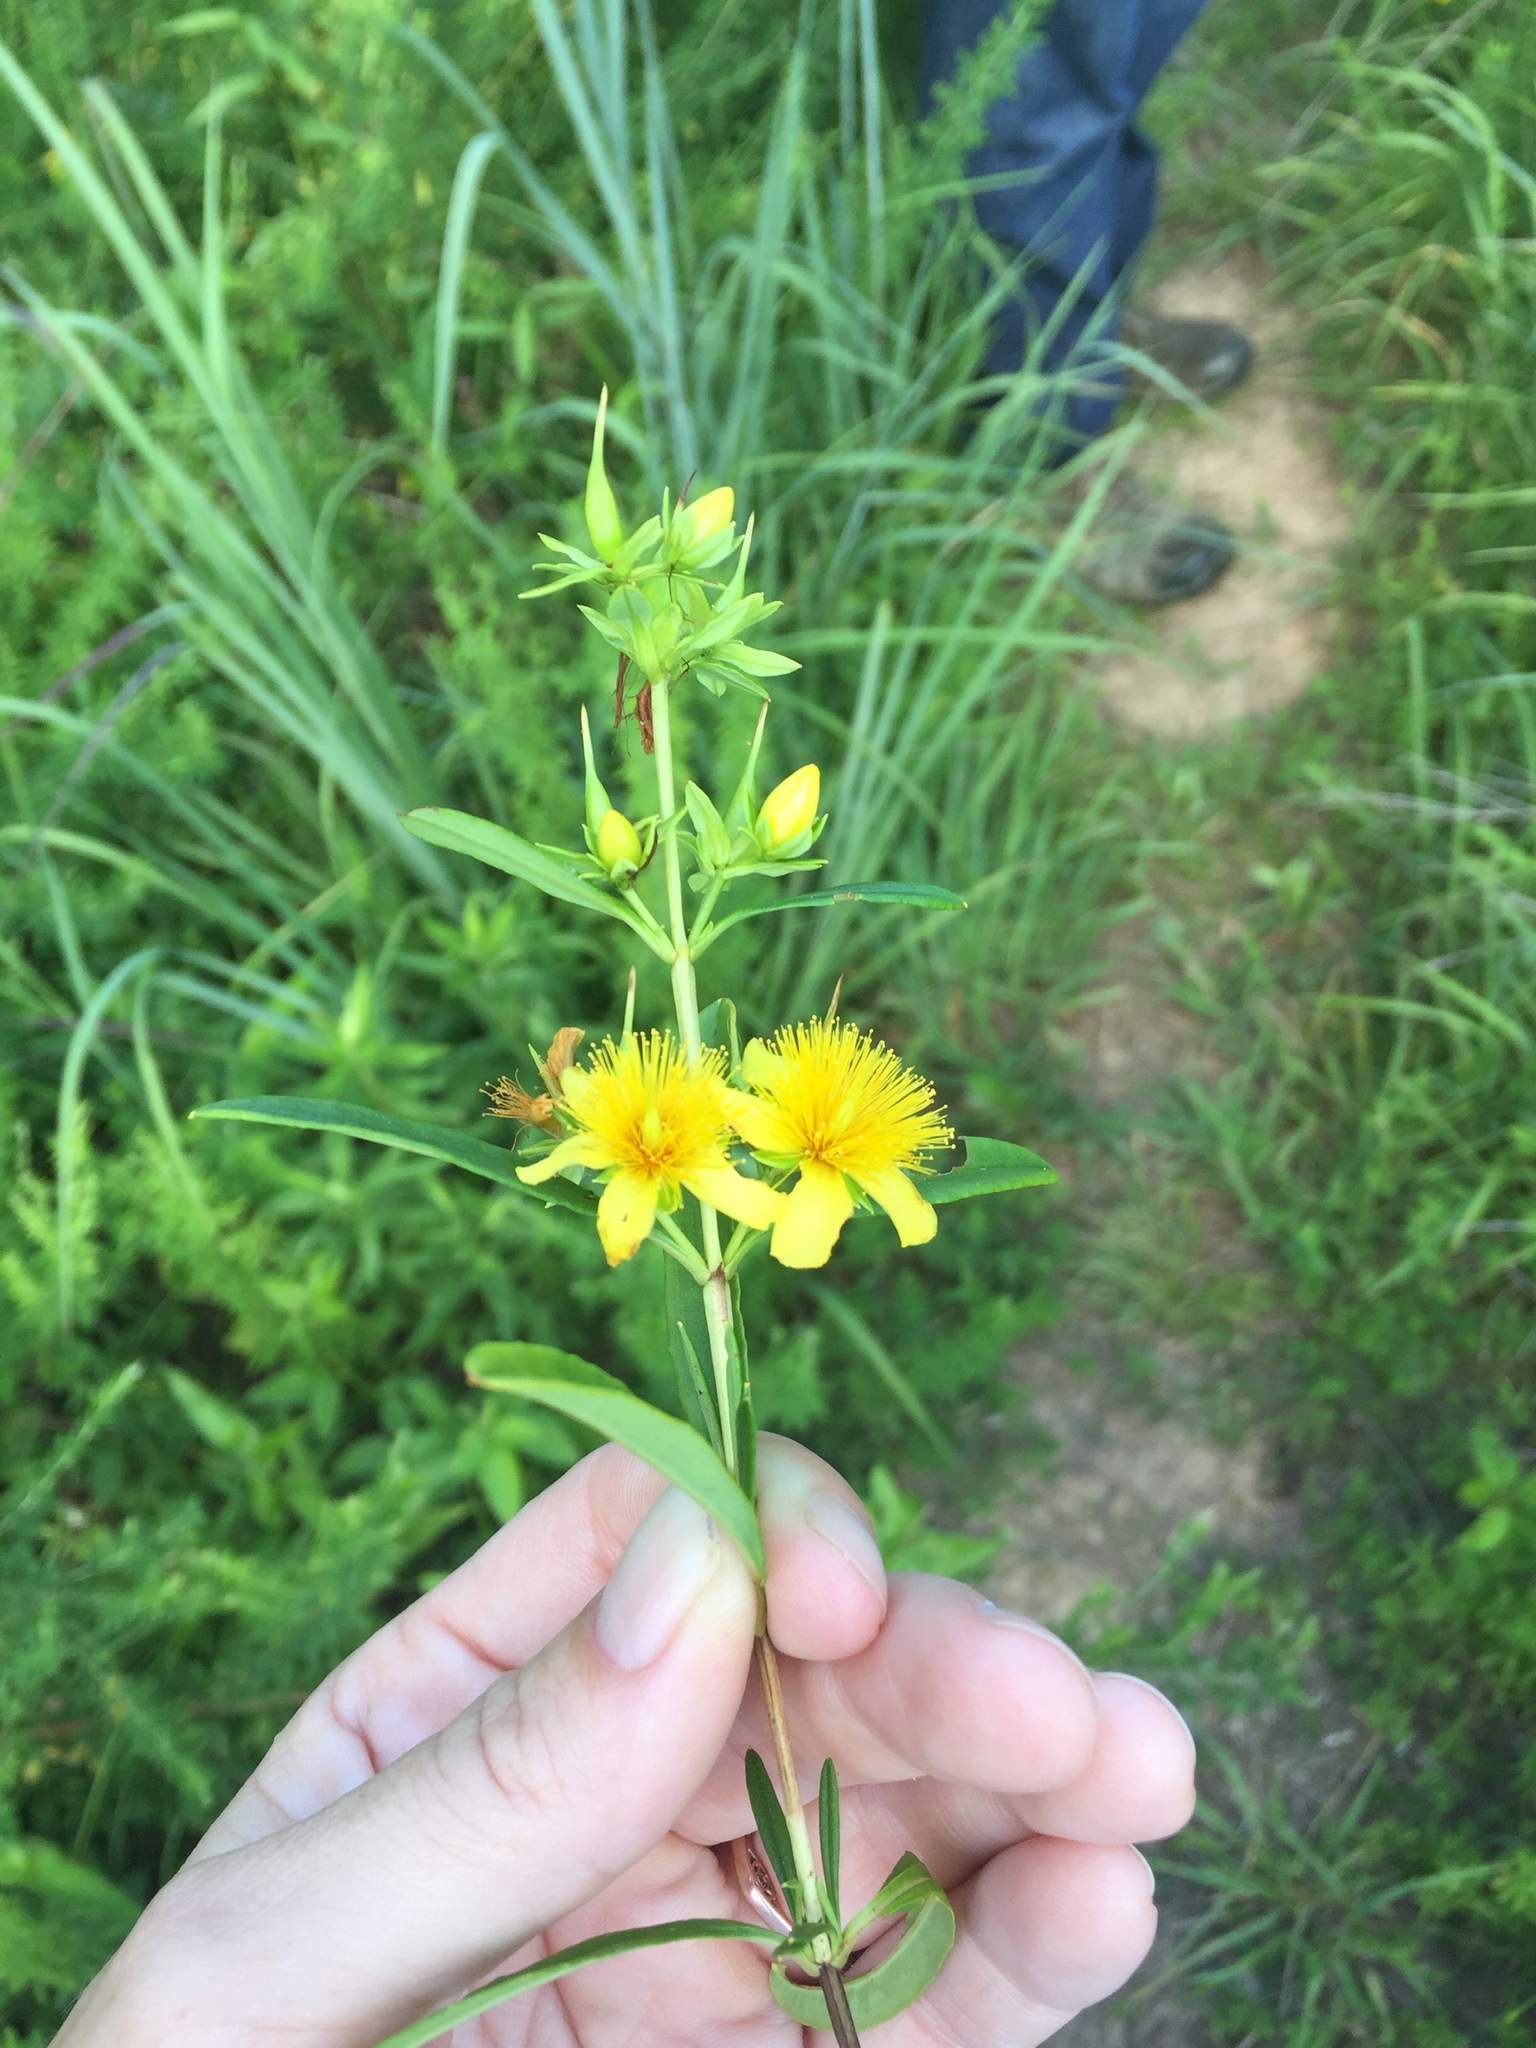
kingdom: Plantae
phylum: Tracheophyta
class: Magnoliopsida
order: Malpighiales
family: Hypericaceae
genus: Hypericum
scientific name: Hypericum prolificum
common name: Shrubby st. john's-wort
